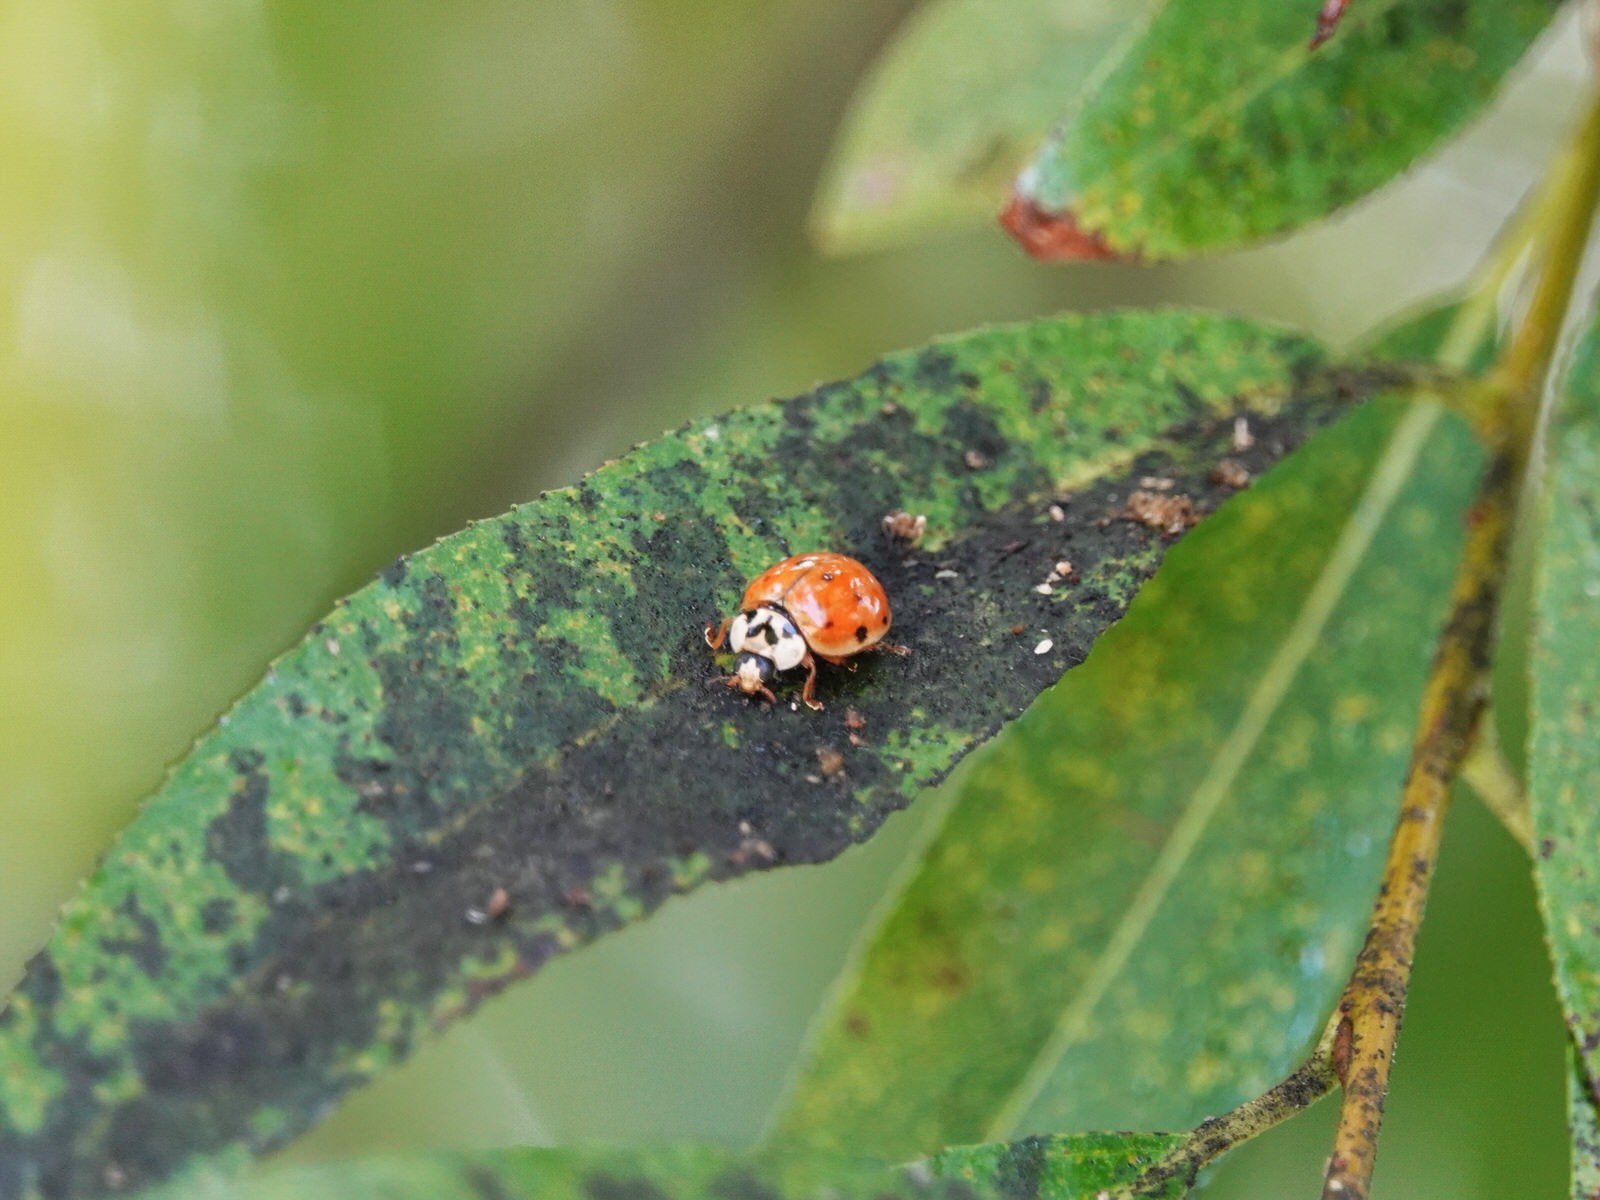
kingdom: Animalia
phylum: Arthropoda
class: Insecta
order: Coleoptera
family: Coccinellidae
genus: Harmonia
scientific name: Harmonia axyridis
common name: Harlequin ladybird
